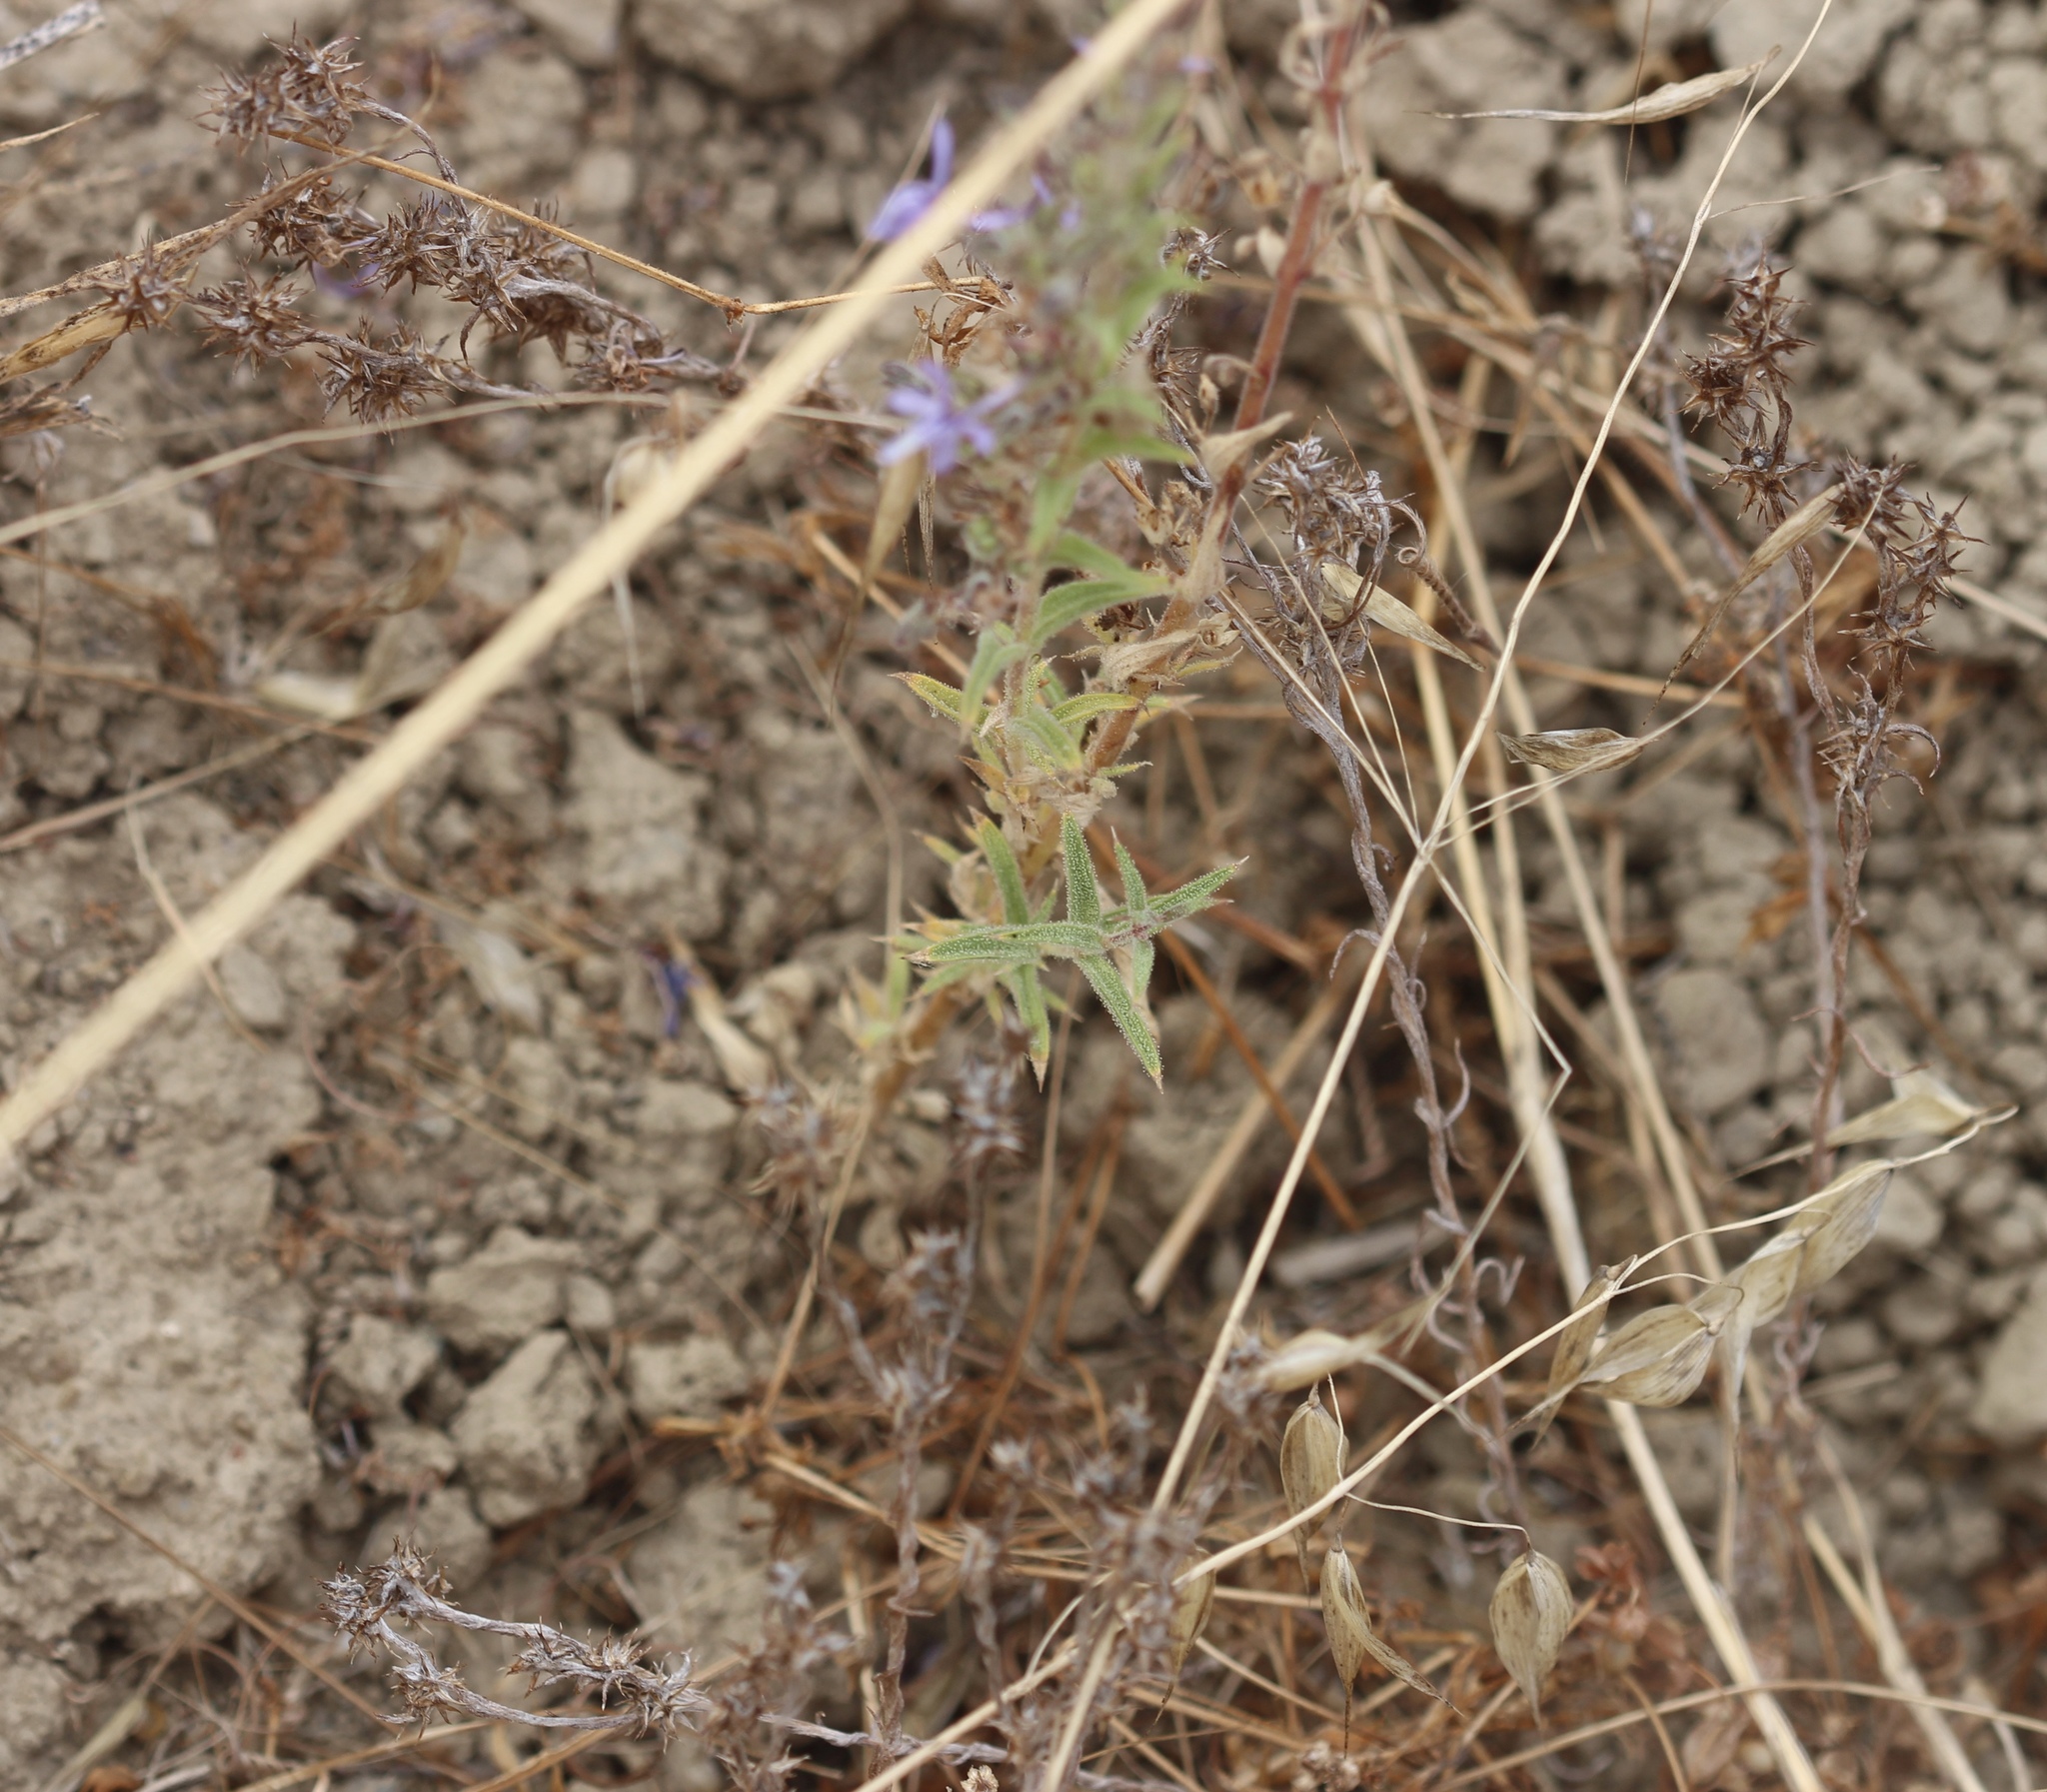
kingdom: Plantae
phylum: Tracheophyta
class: Magnoliopsida
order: Lamiales
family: Lamiaceae
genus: Trichostema
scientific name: Trichostema lanceolatum
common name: Vinegar-weed
